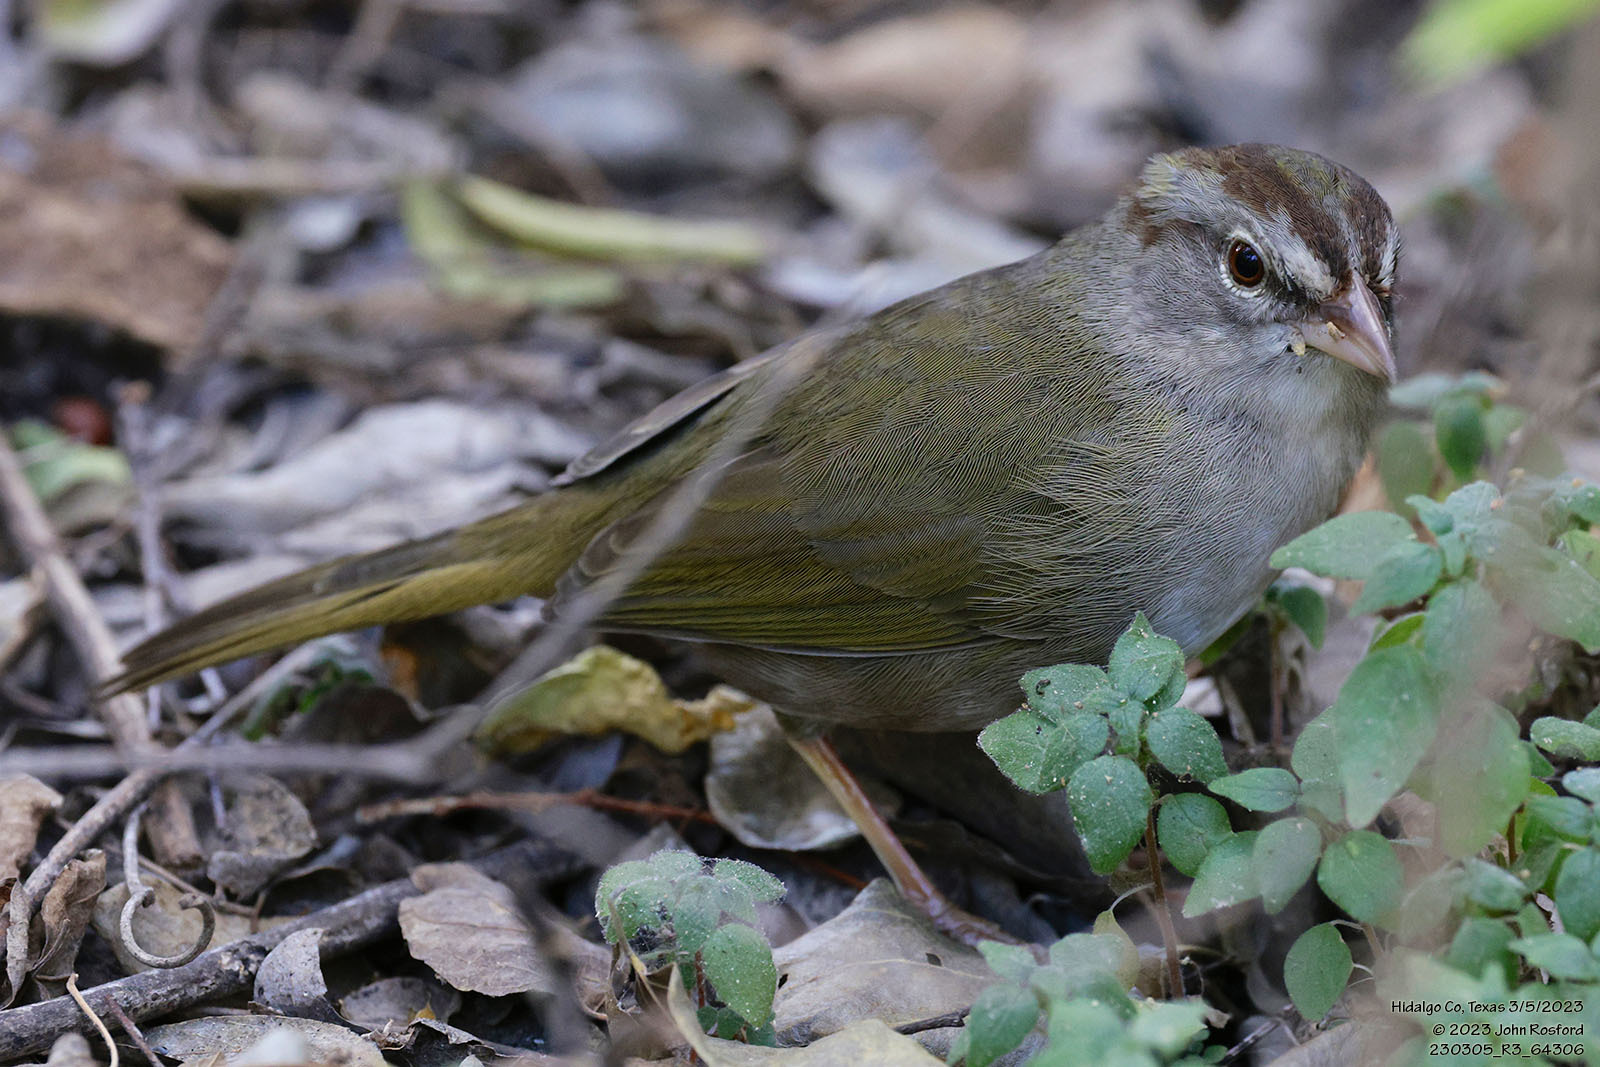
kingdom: Animalia
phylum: Chordata
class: Aves
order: Passeriformes
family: Passerellidae
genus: Arremonops
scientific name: Arremonops rufivirgatus
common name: Olive sparrow
